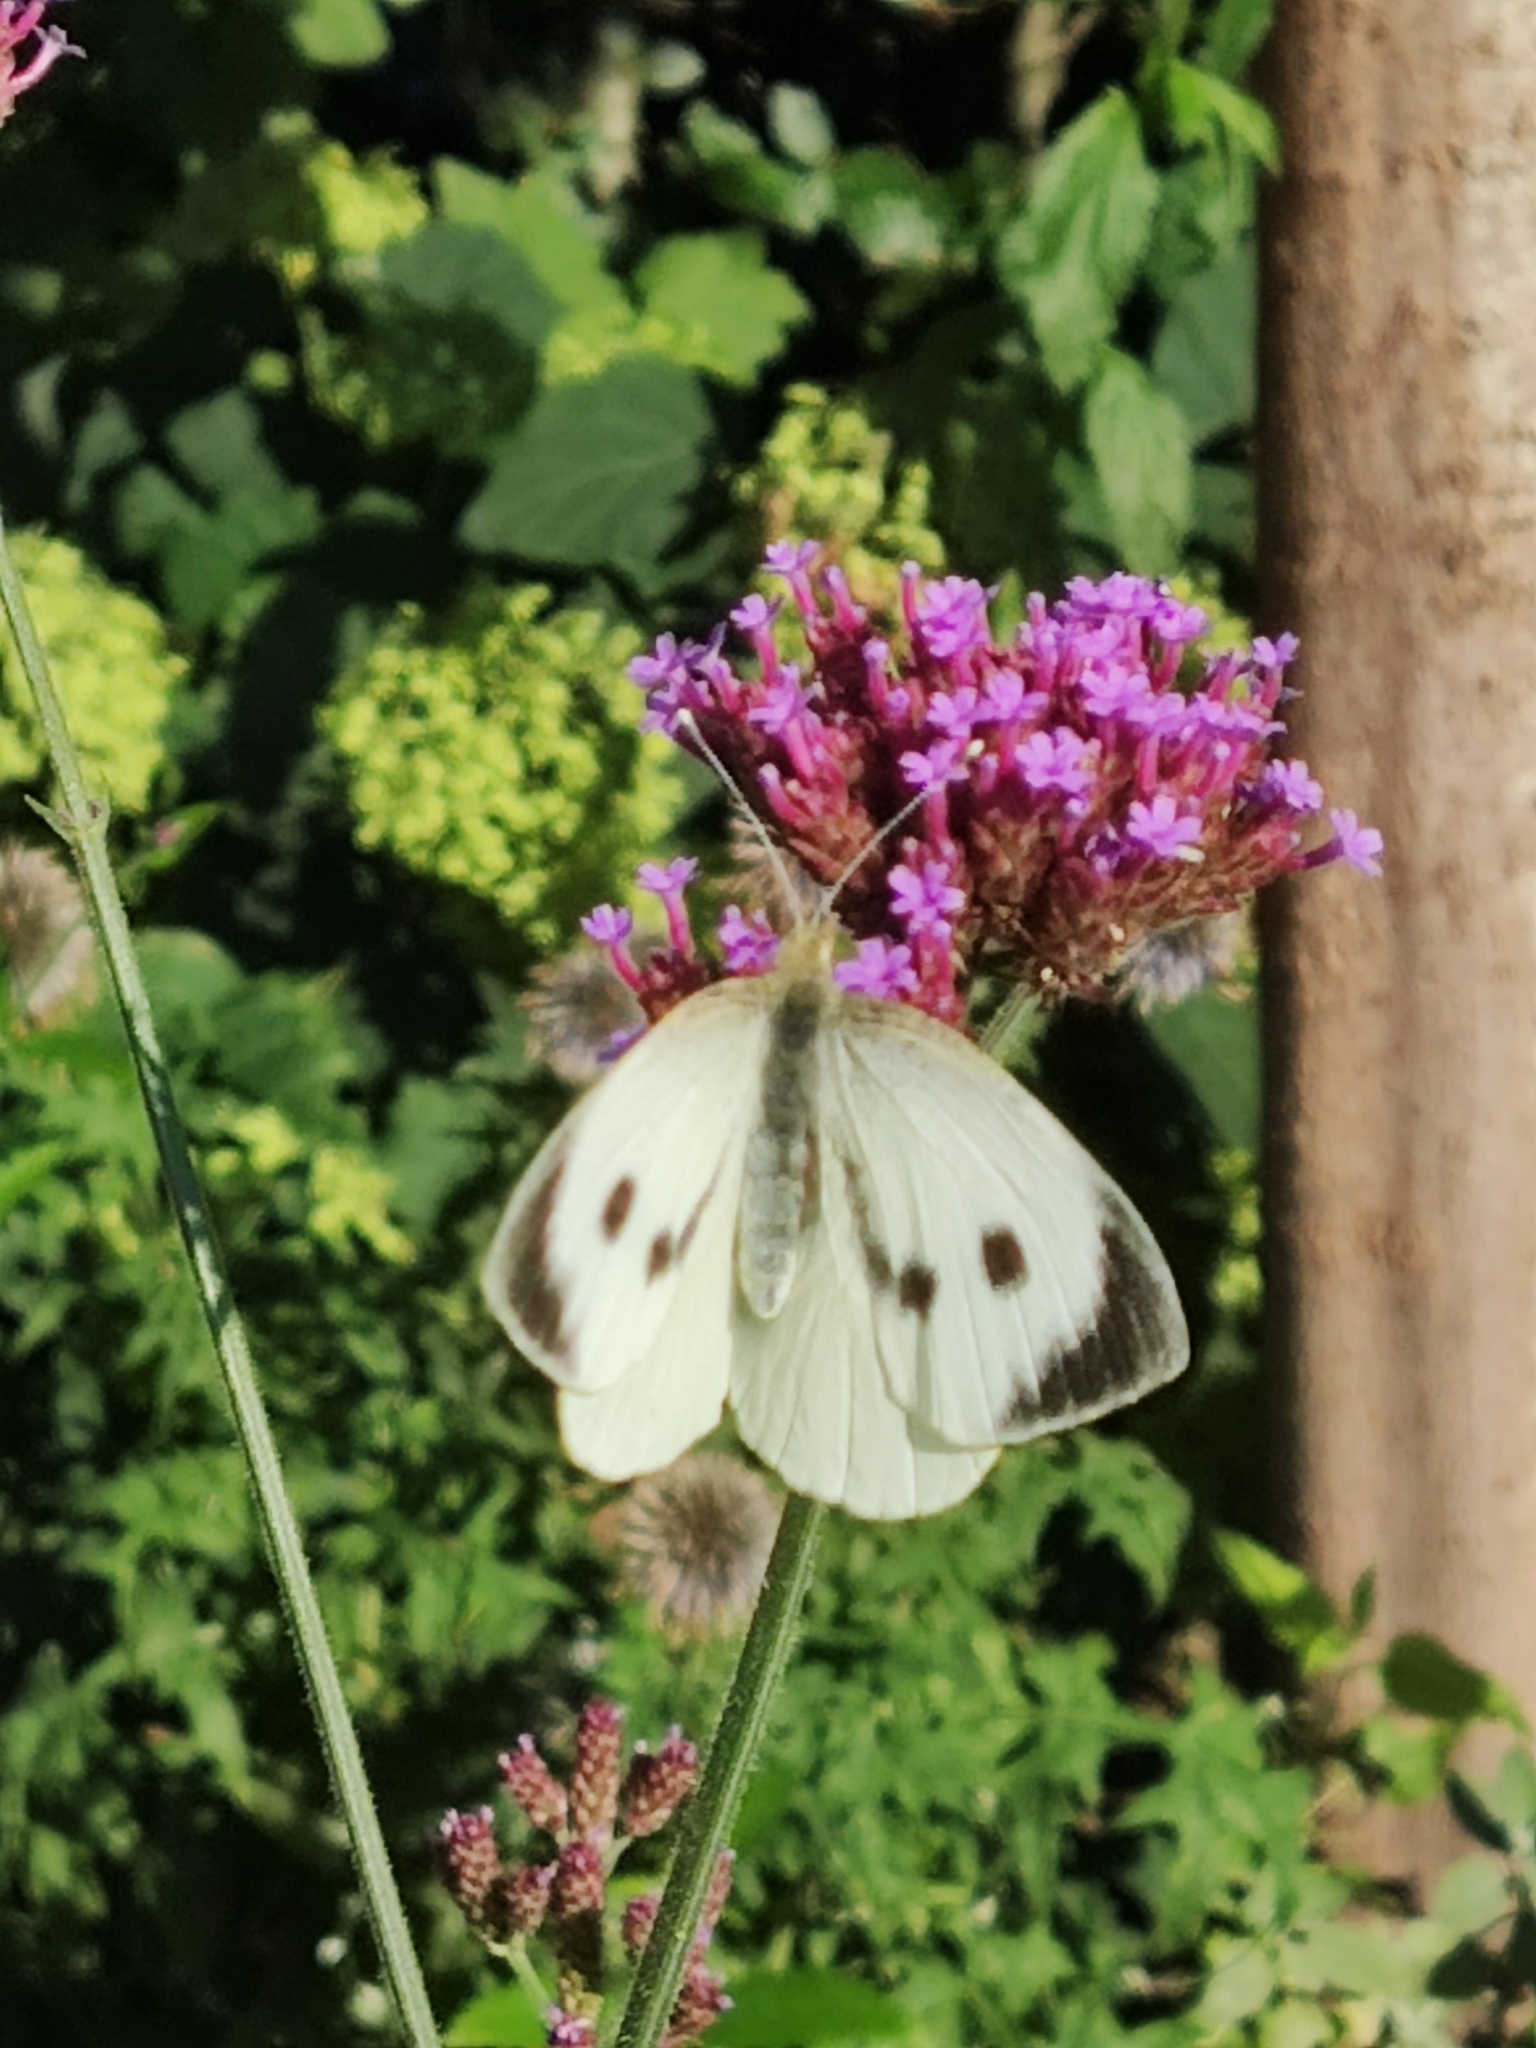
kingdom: Animalia
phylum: Arthropoda
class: Insecta
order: Lepidoptera
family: Pieridae
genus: Pieris
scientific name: Pieris brassicae
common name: Large white
